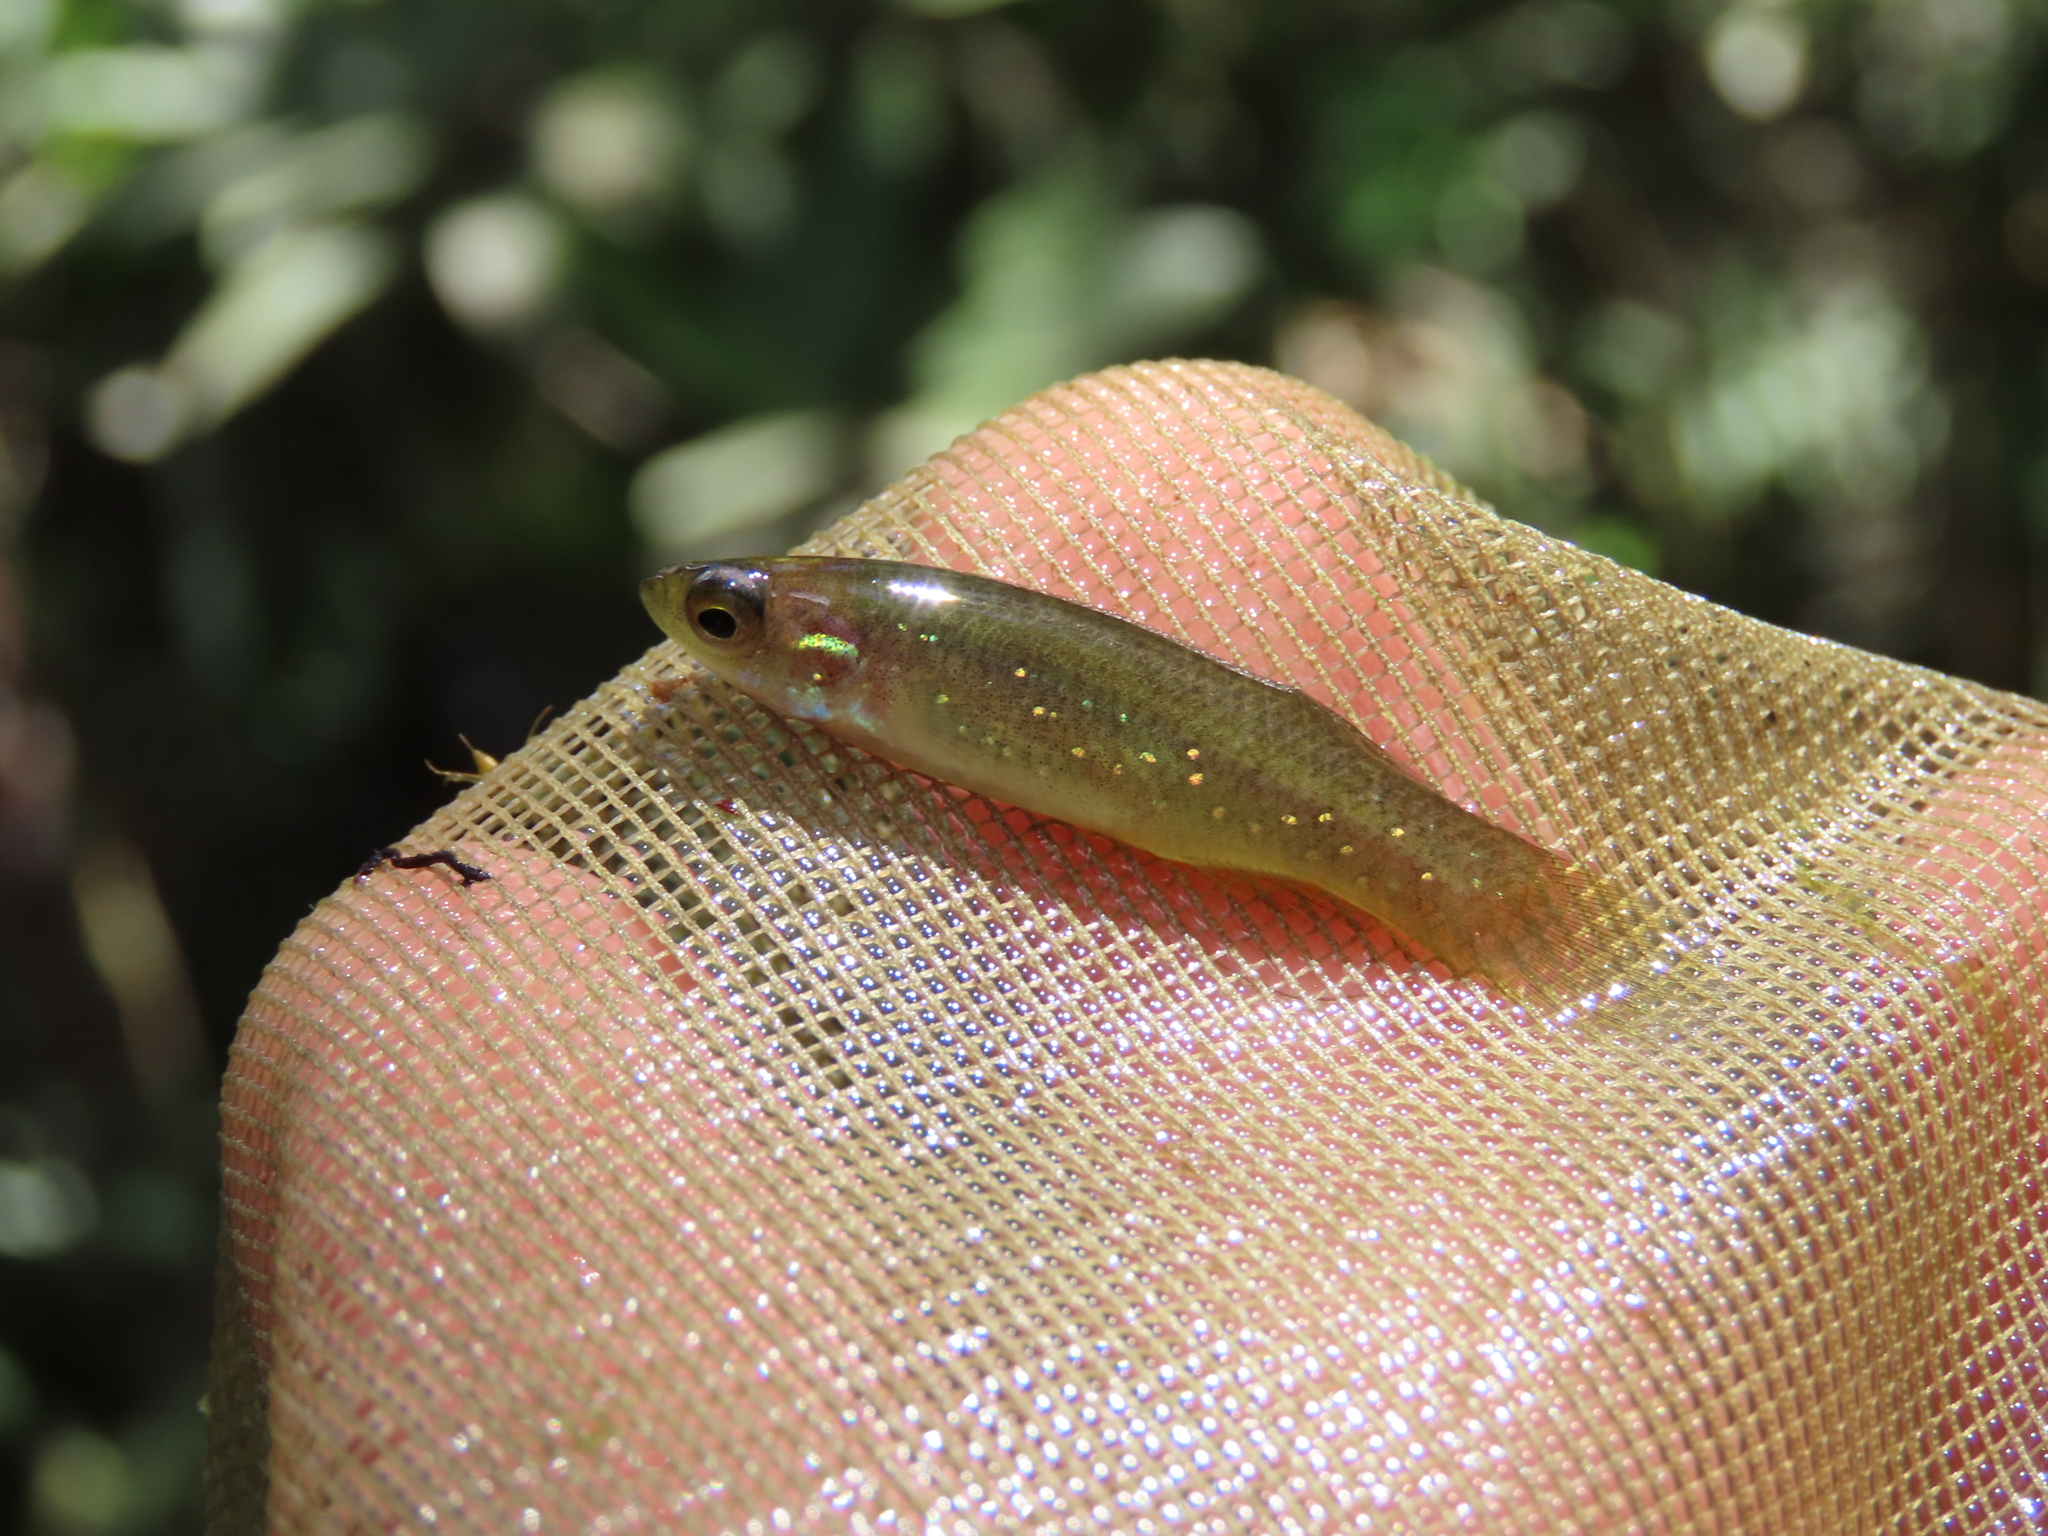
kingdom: Animalia
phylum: Chordata
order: Cyprinodontiformes
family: Fundulidae
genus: Fundulus
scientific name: Fundulus chrysotus
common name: Golden topminnow
